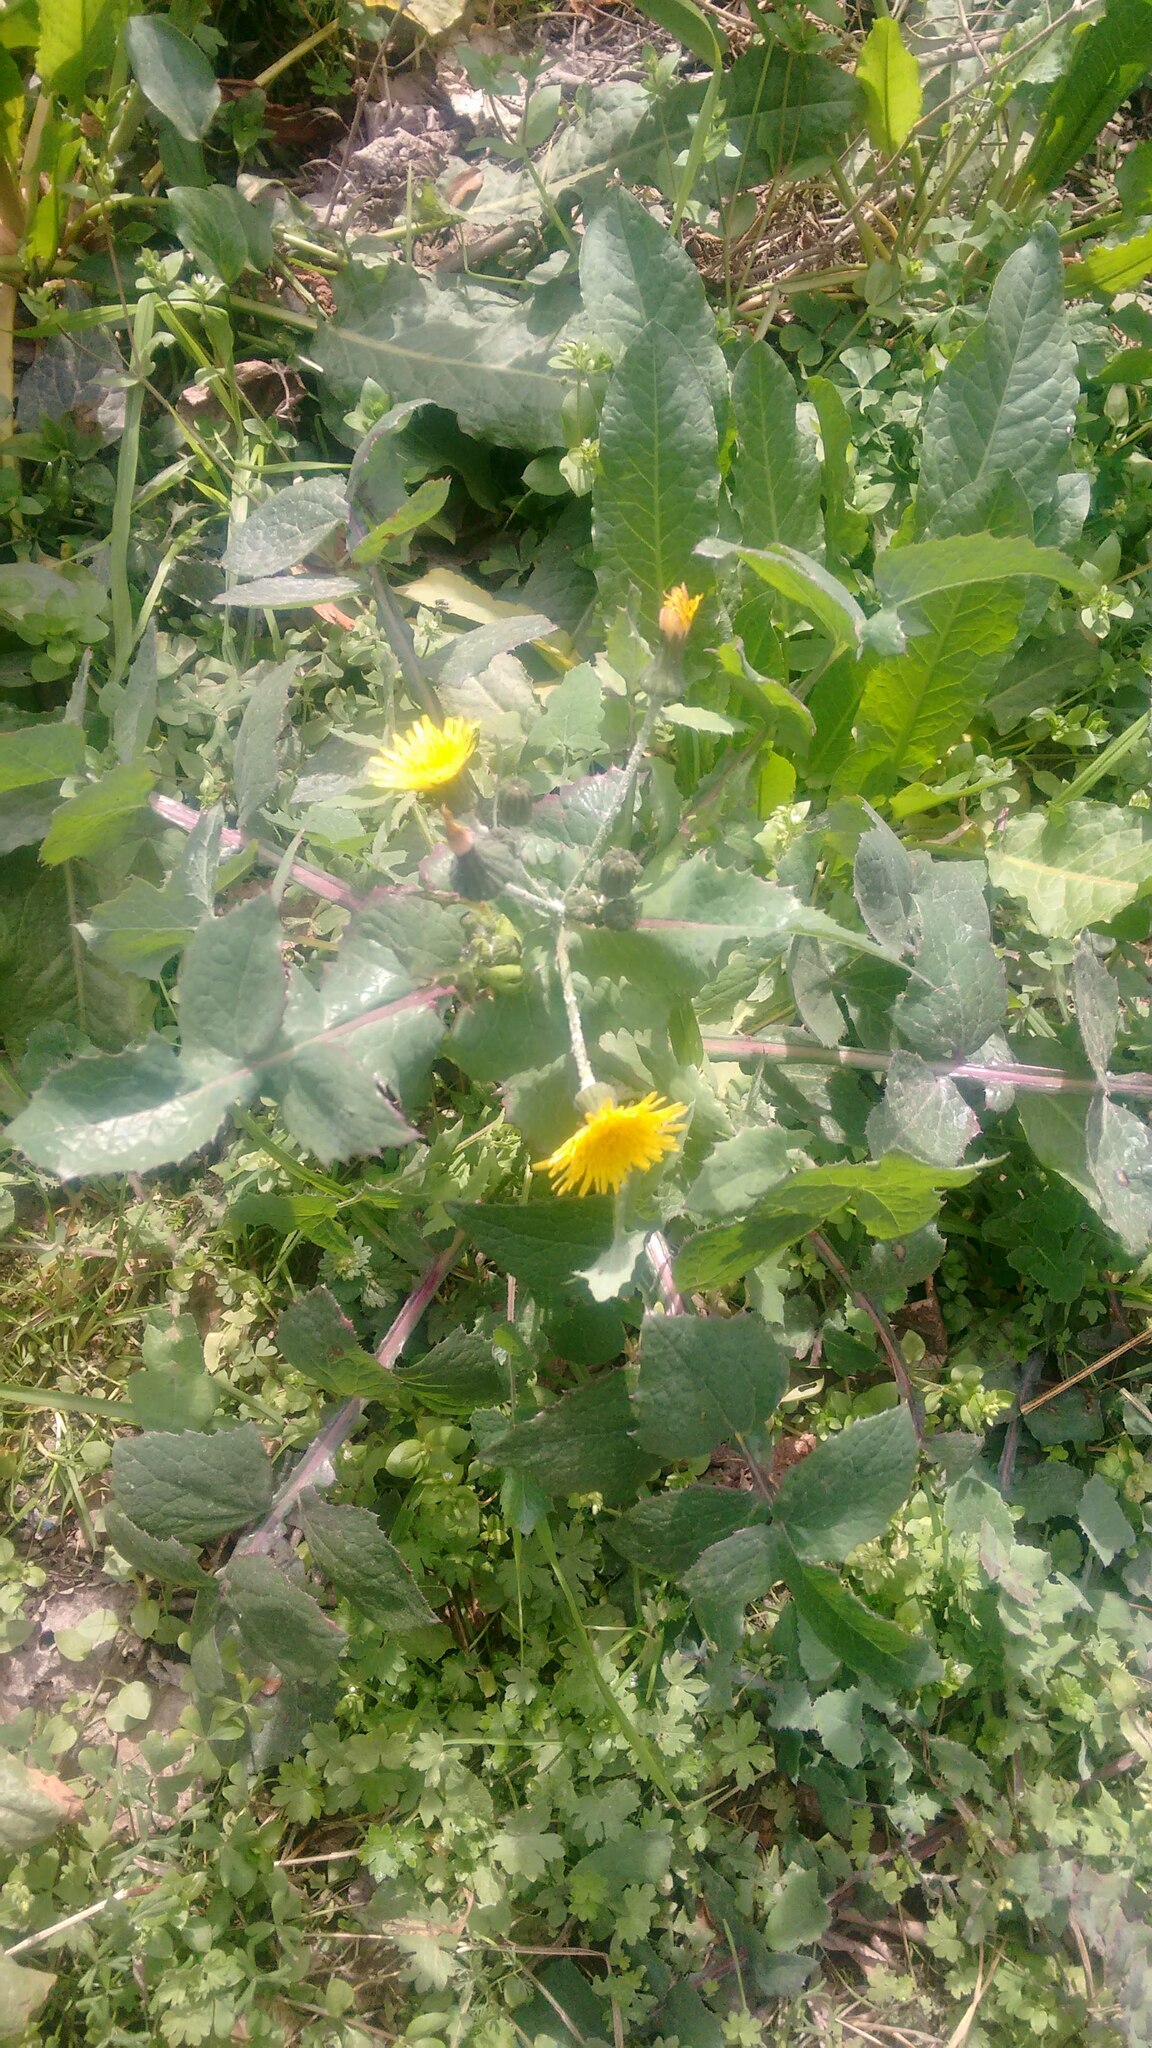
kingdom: Plantae
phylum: Tracheophyta
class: Magnoliopsida
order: Asterales
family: Asteraceae
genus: Sonchus
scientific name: Sonchus oleraceus
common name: Common sowthistle
